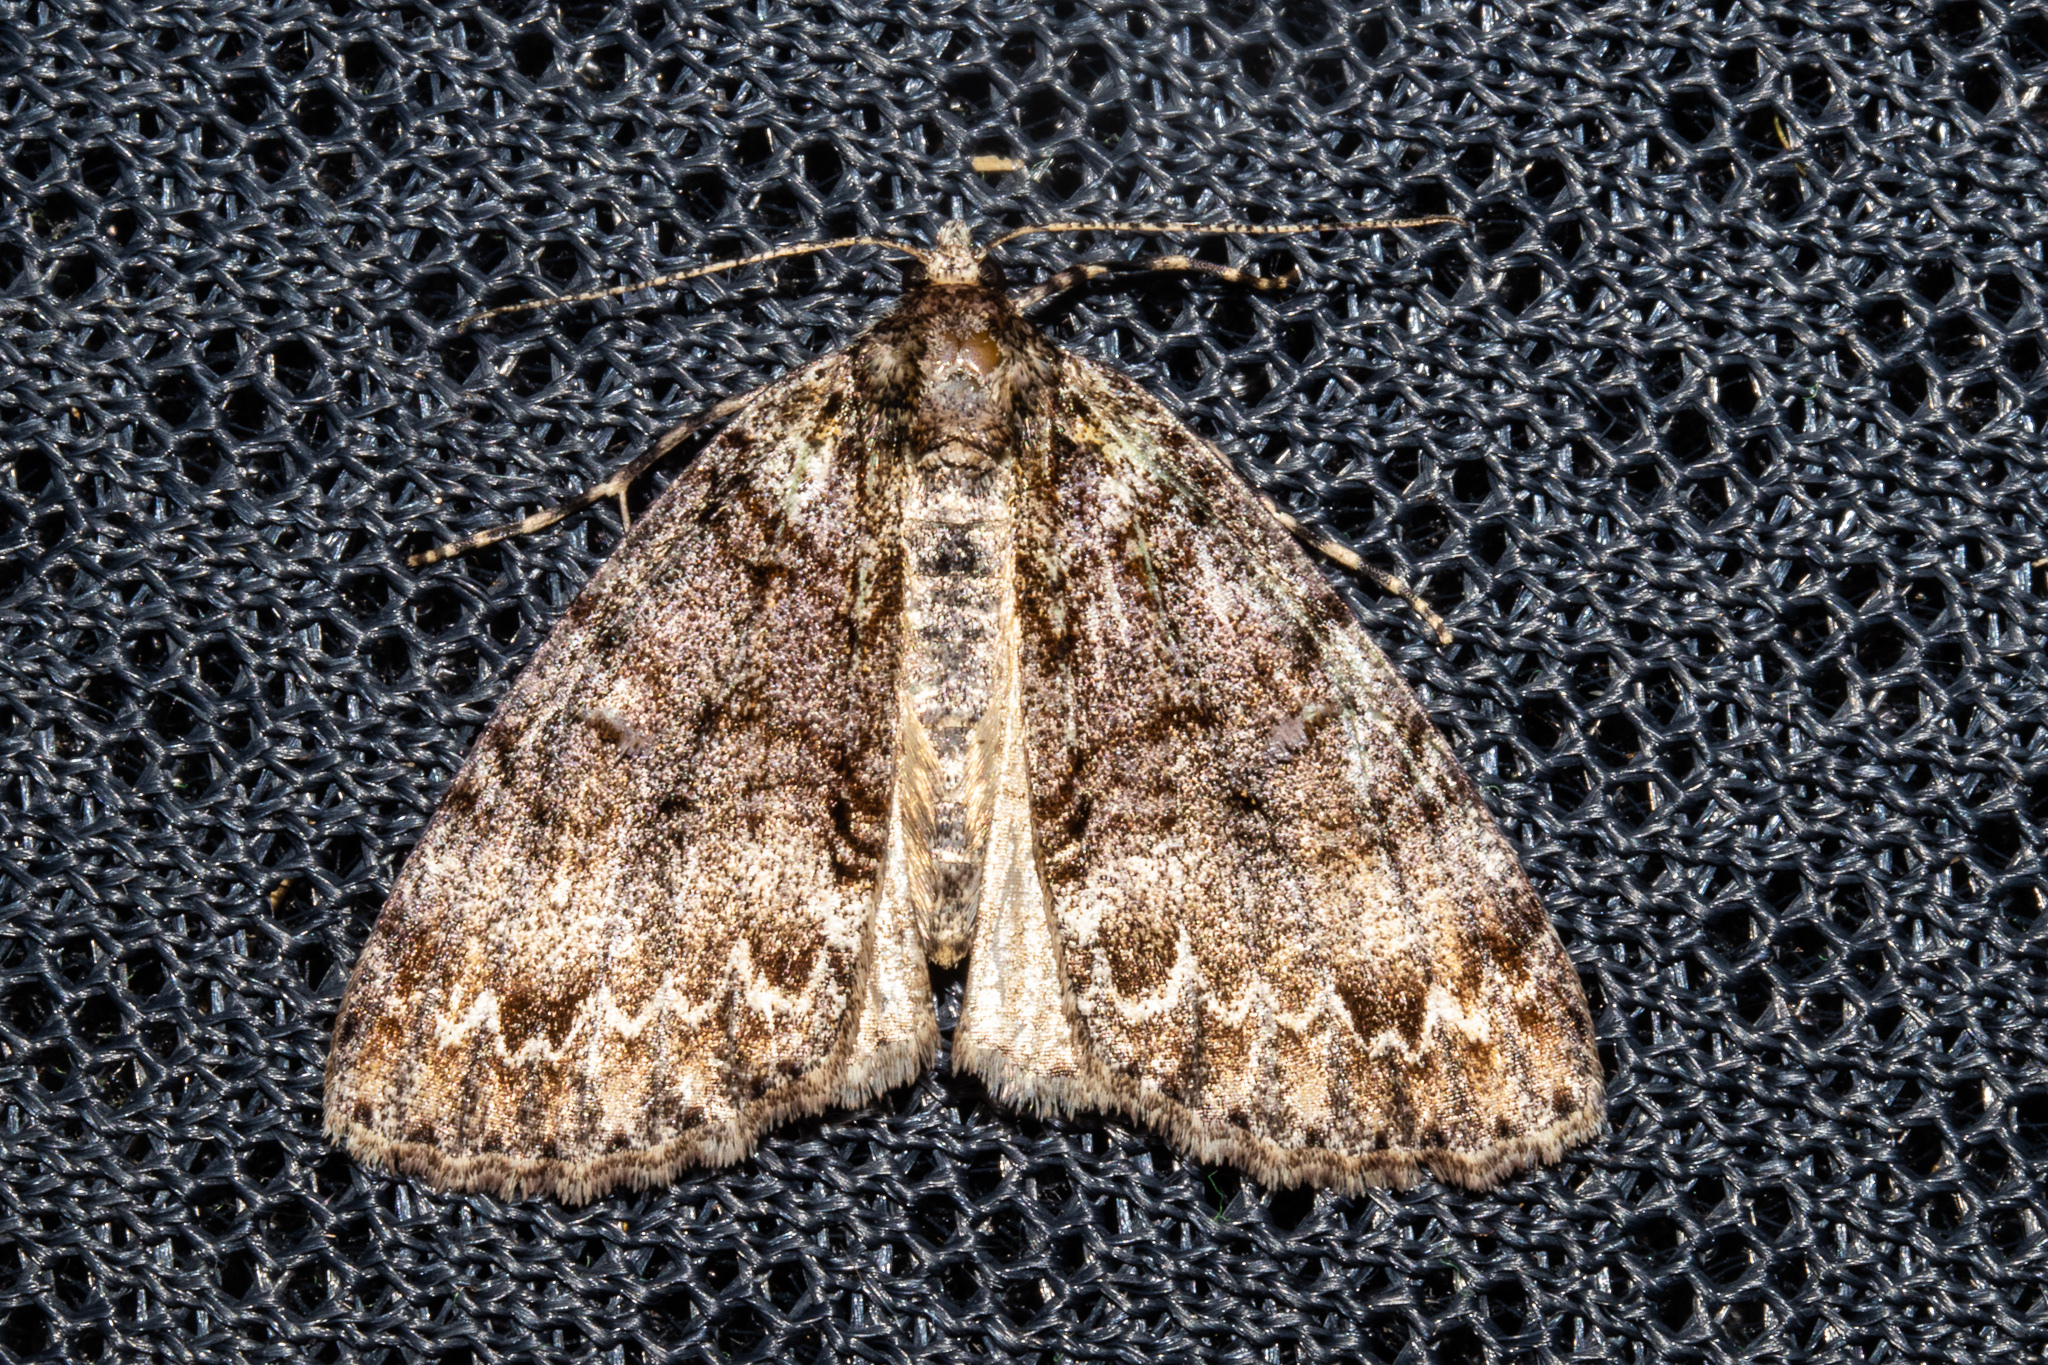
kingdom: Animalia
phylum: Arthropoda
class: Insecta
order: Lepidoptera
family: Geometridae
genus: Pseudocoremia
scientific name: Pseudocoremia suavis
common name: Common forest looper
